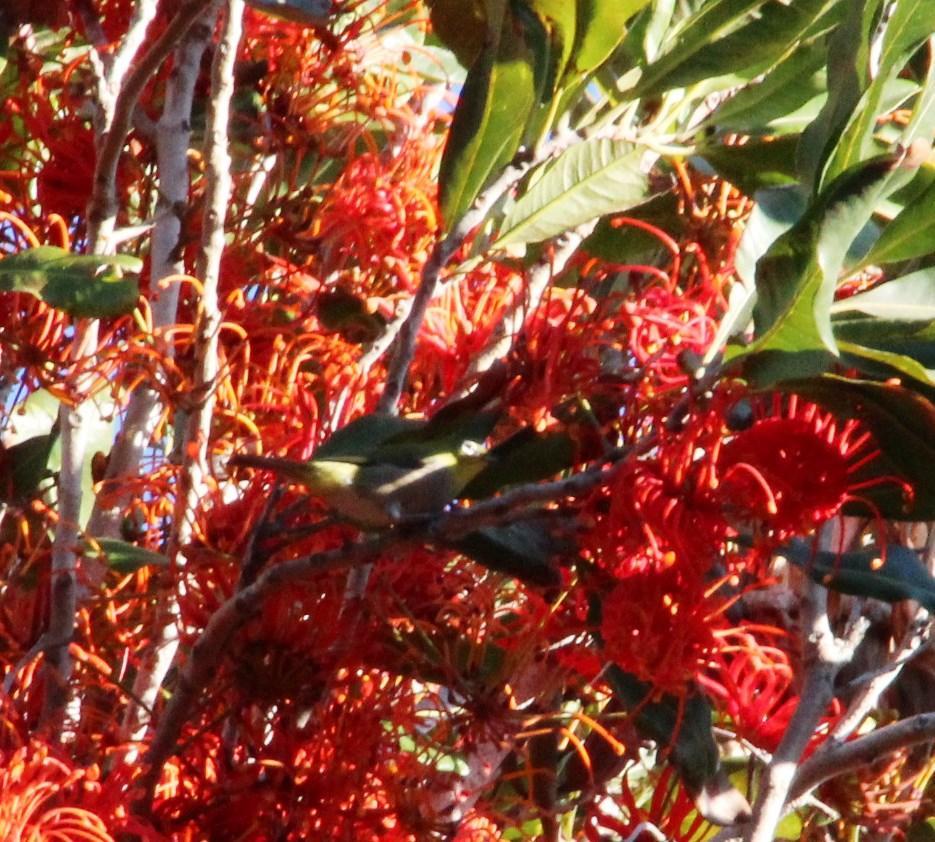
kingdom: Animalia
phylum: Chordata
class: Aves
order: Passeriformes
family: Zosteropidae
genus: Zosterops
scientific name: Zosterops virens
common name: Cape white-eye
